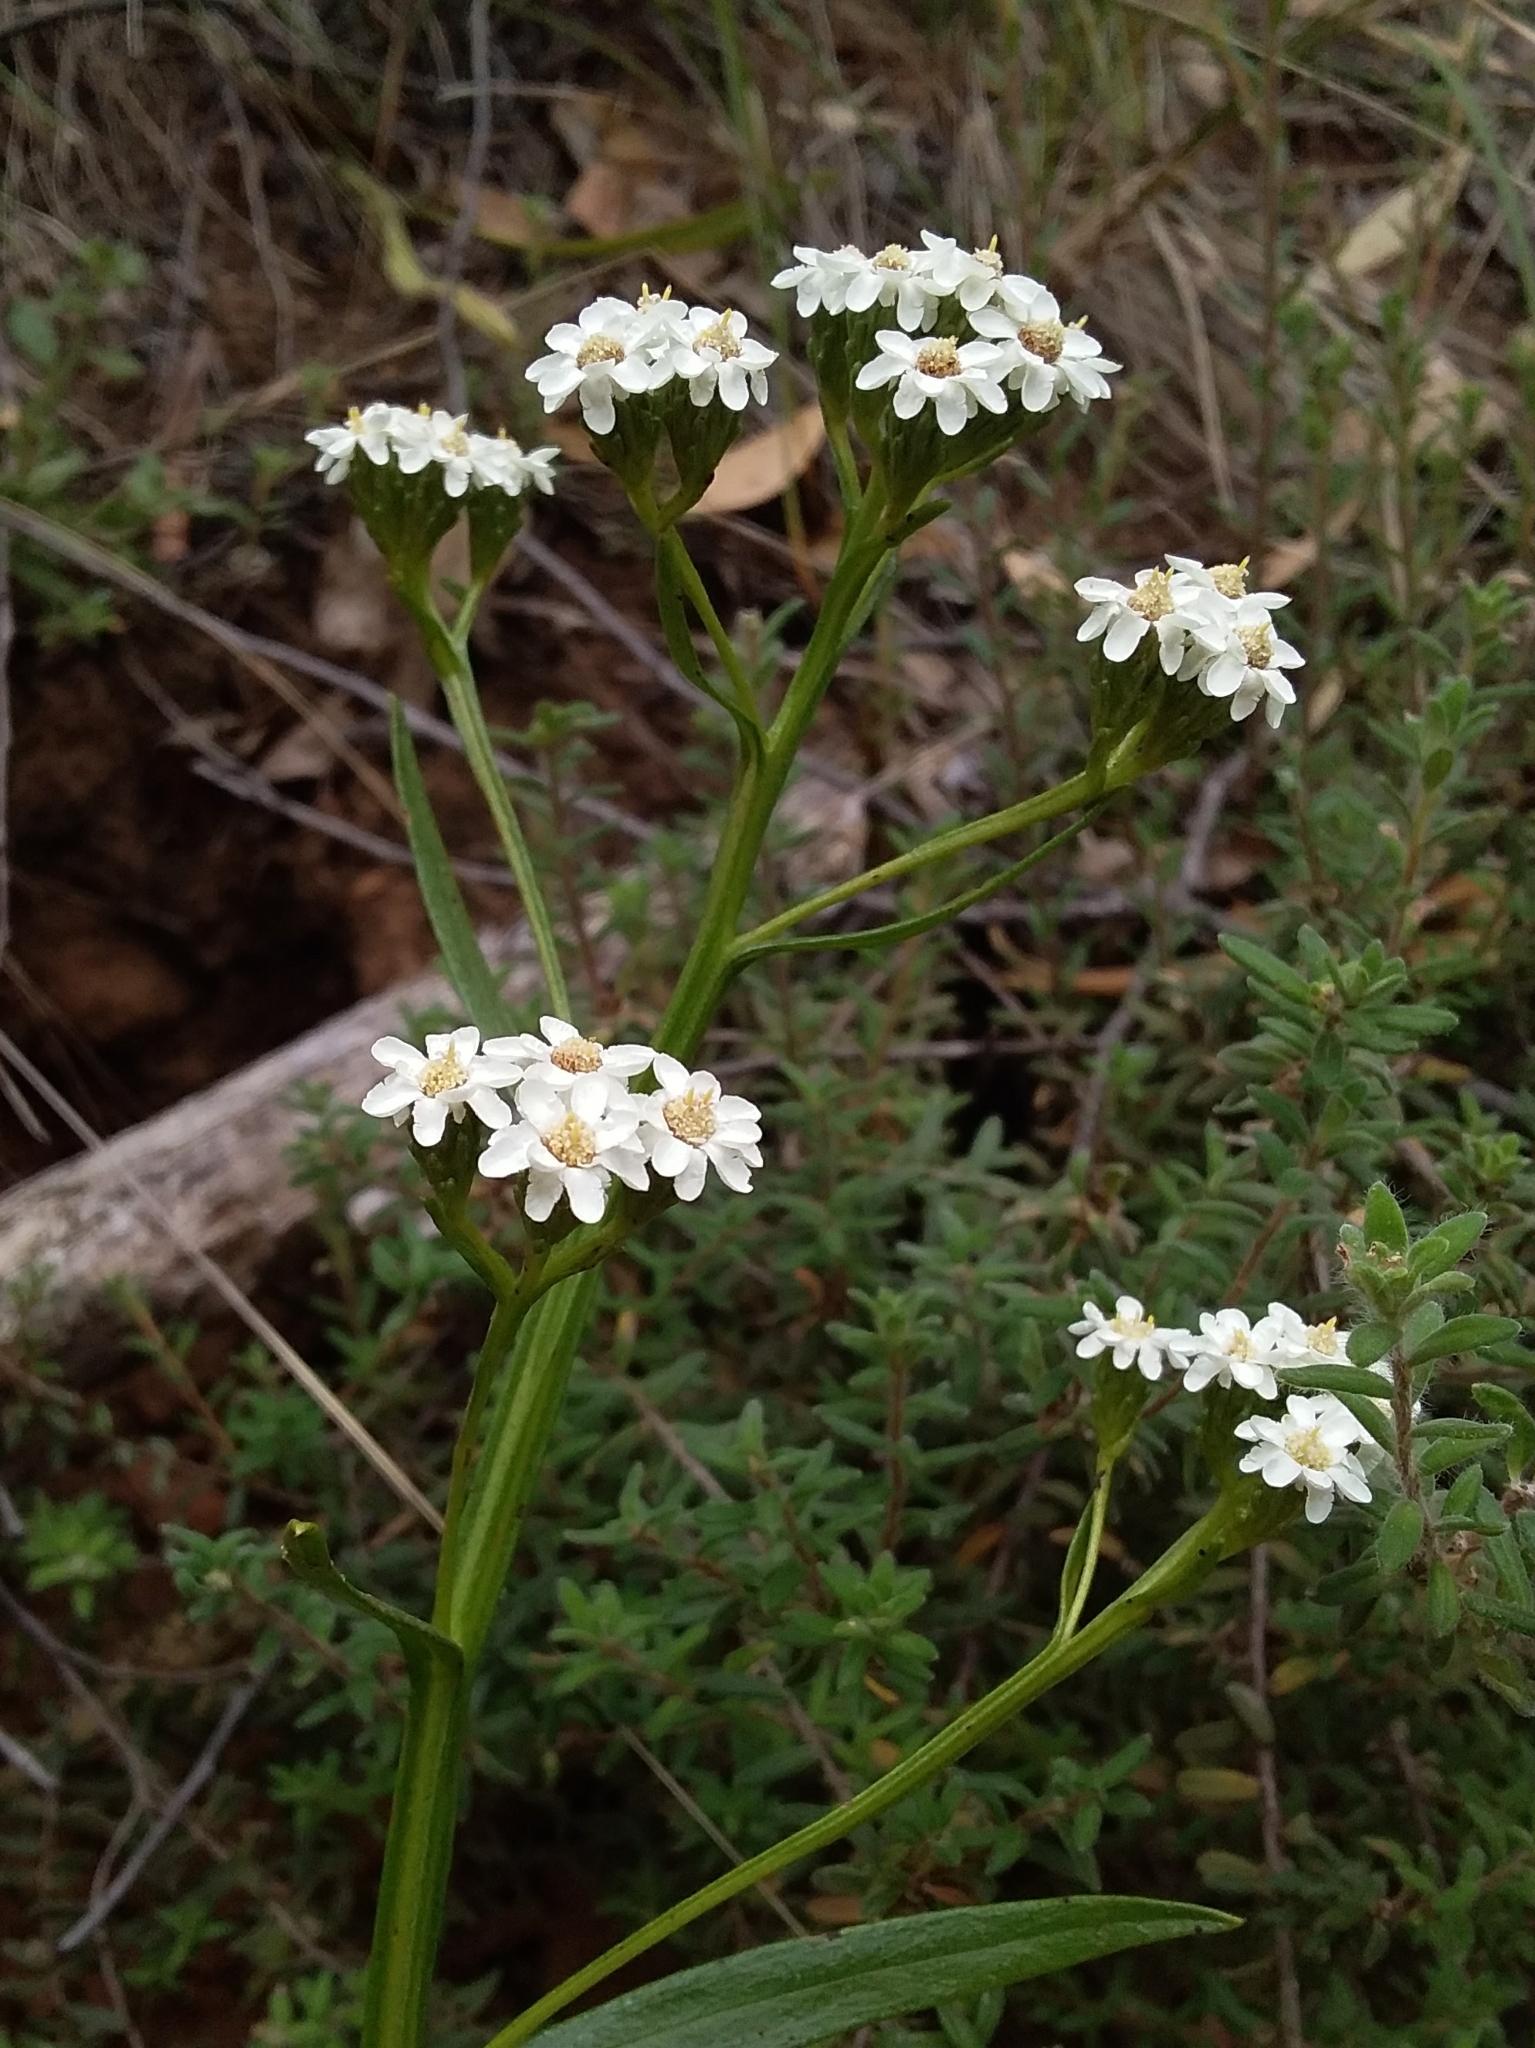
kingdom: Plantae
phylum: Tracheophyta
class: Magnoliopsida
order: Asterales
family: Asteraceae
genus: Ixodia
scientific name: Ixodia achillaeoides
